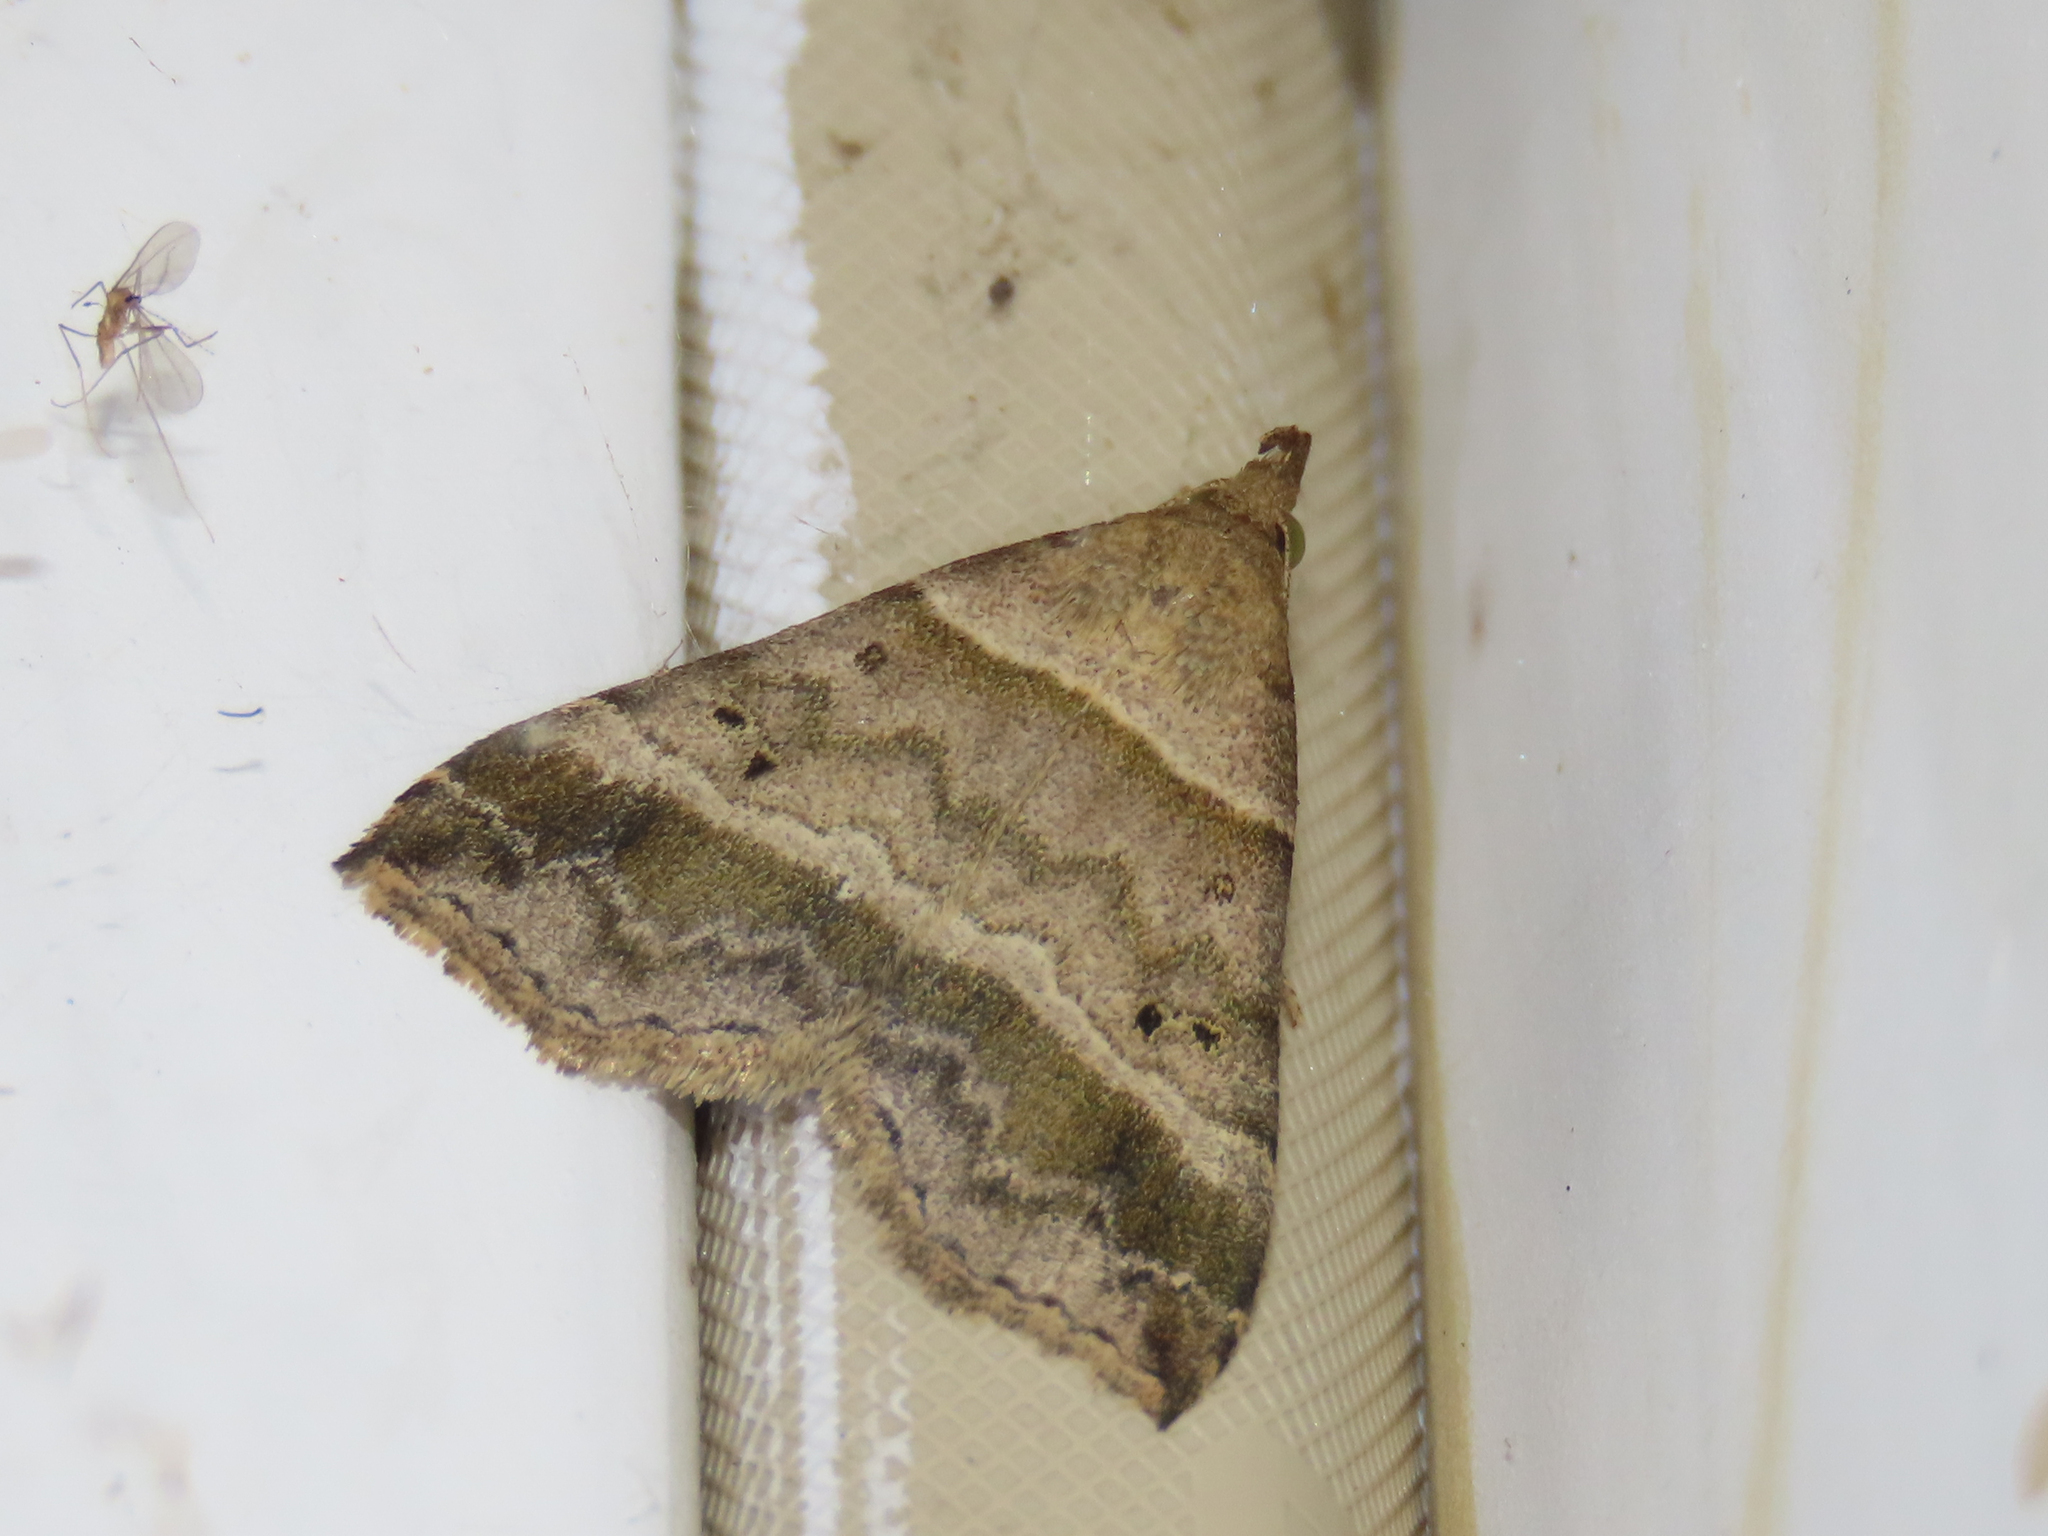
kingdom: Animalia
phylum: Arthropoda
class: Insecta
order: Lepidoptera
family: Erebidae
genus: Phaeolita
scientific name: Phaeolita pyramusalis
